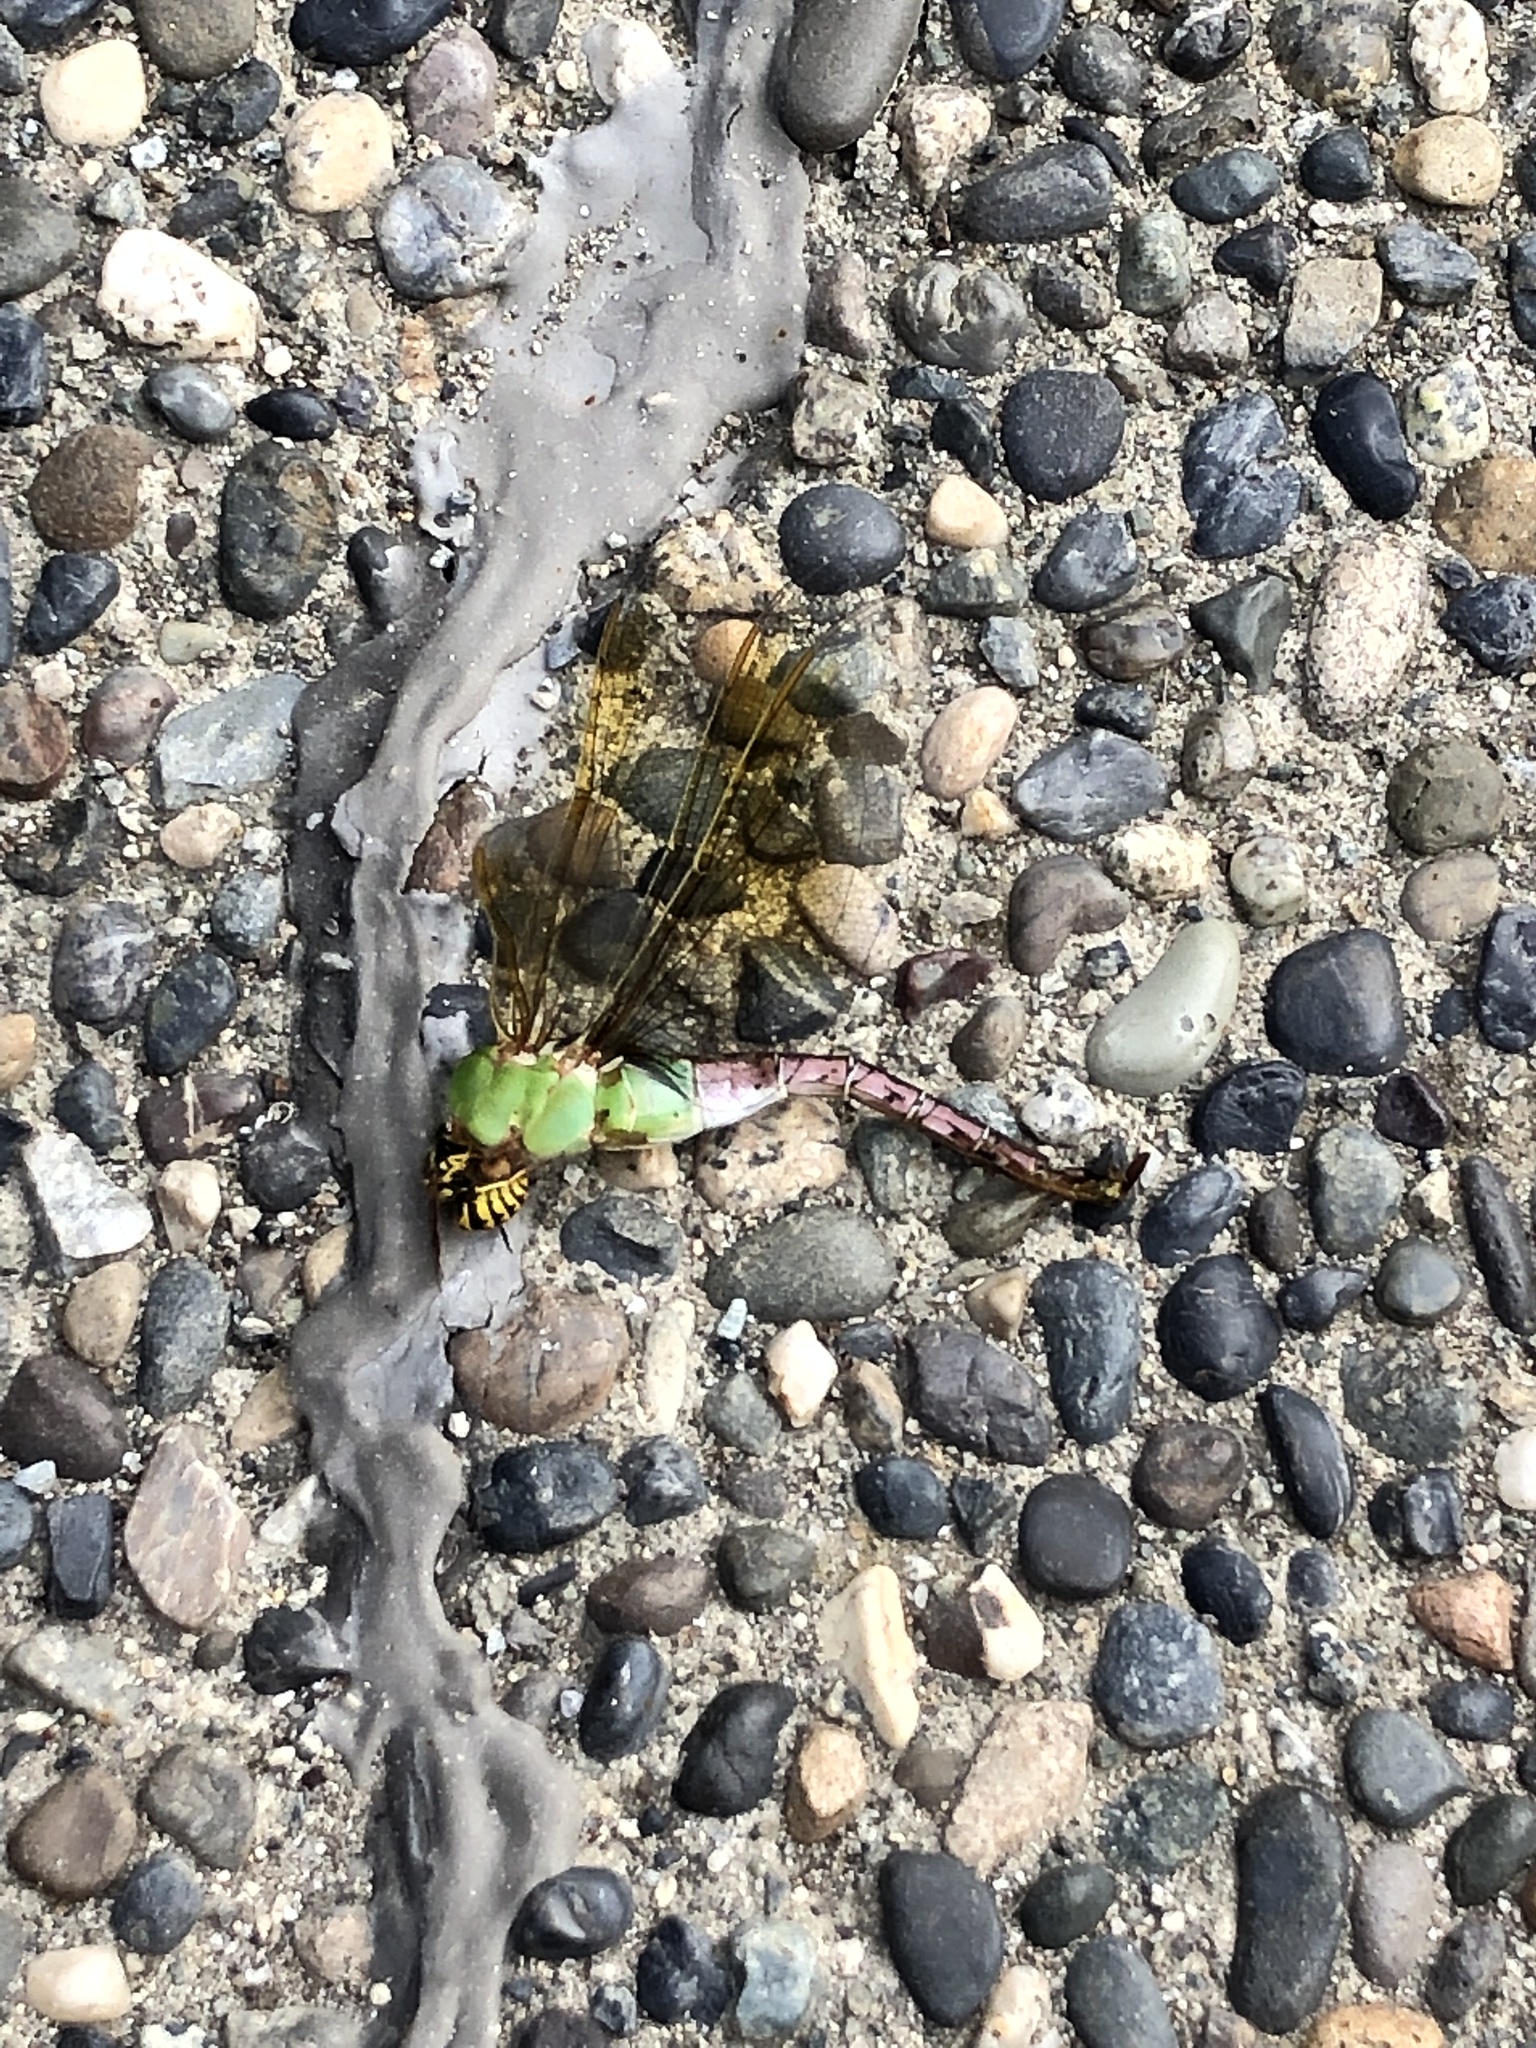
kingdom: Animalia
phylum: Arthropoda
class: Insecta
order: Odonata
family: Aeshnidae
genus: Anax
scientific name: Anax junius
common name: Common green darner
